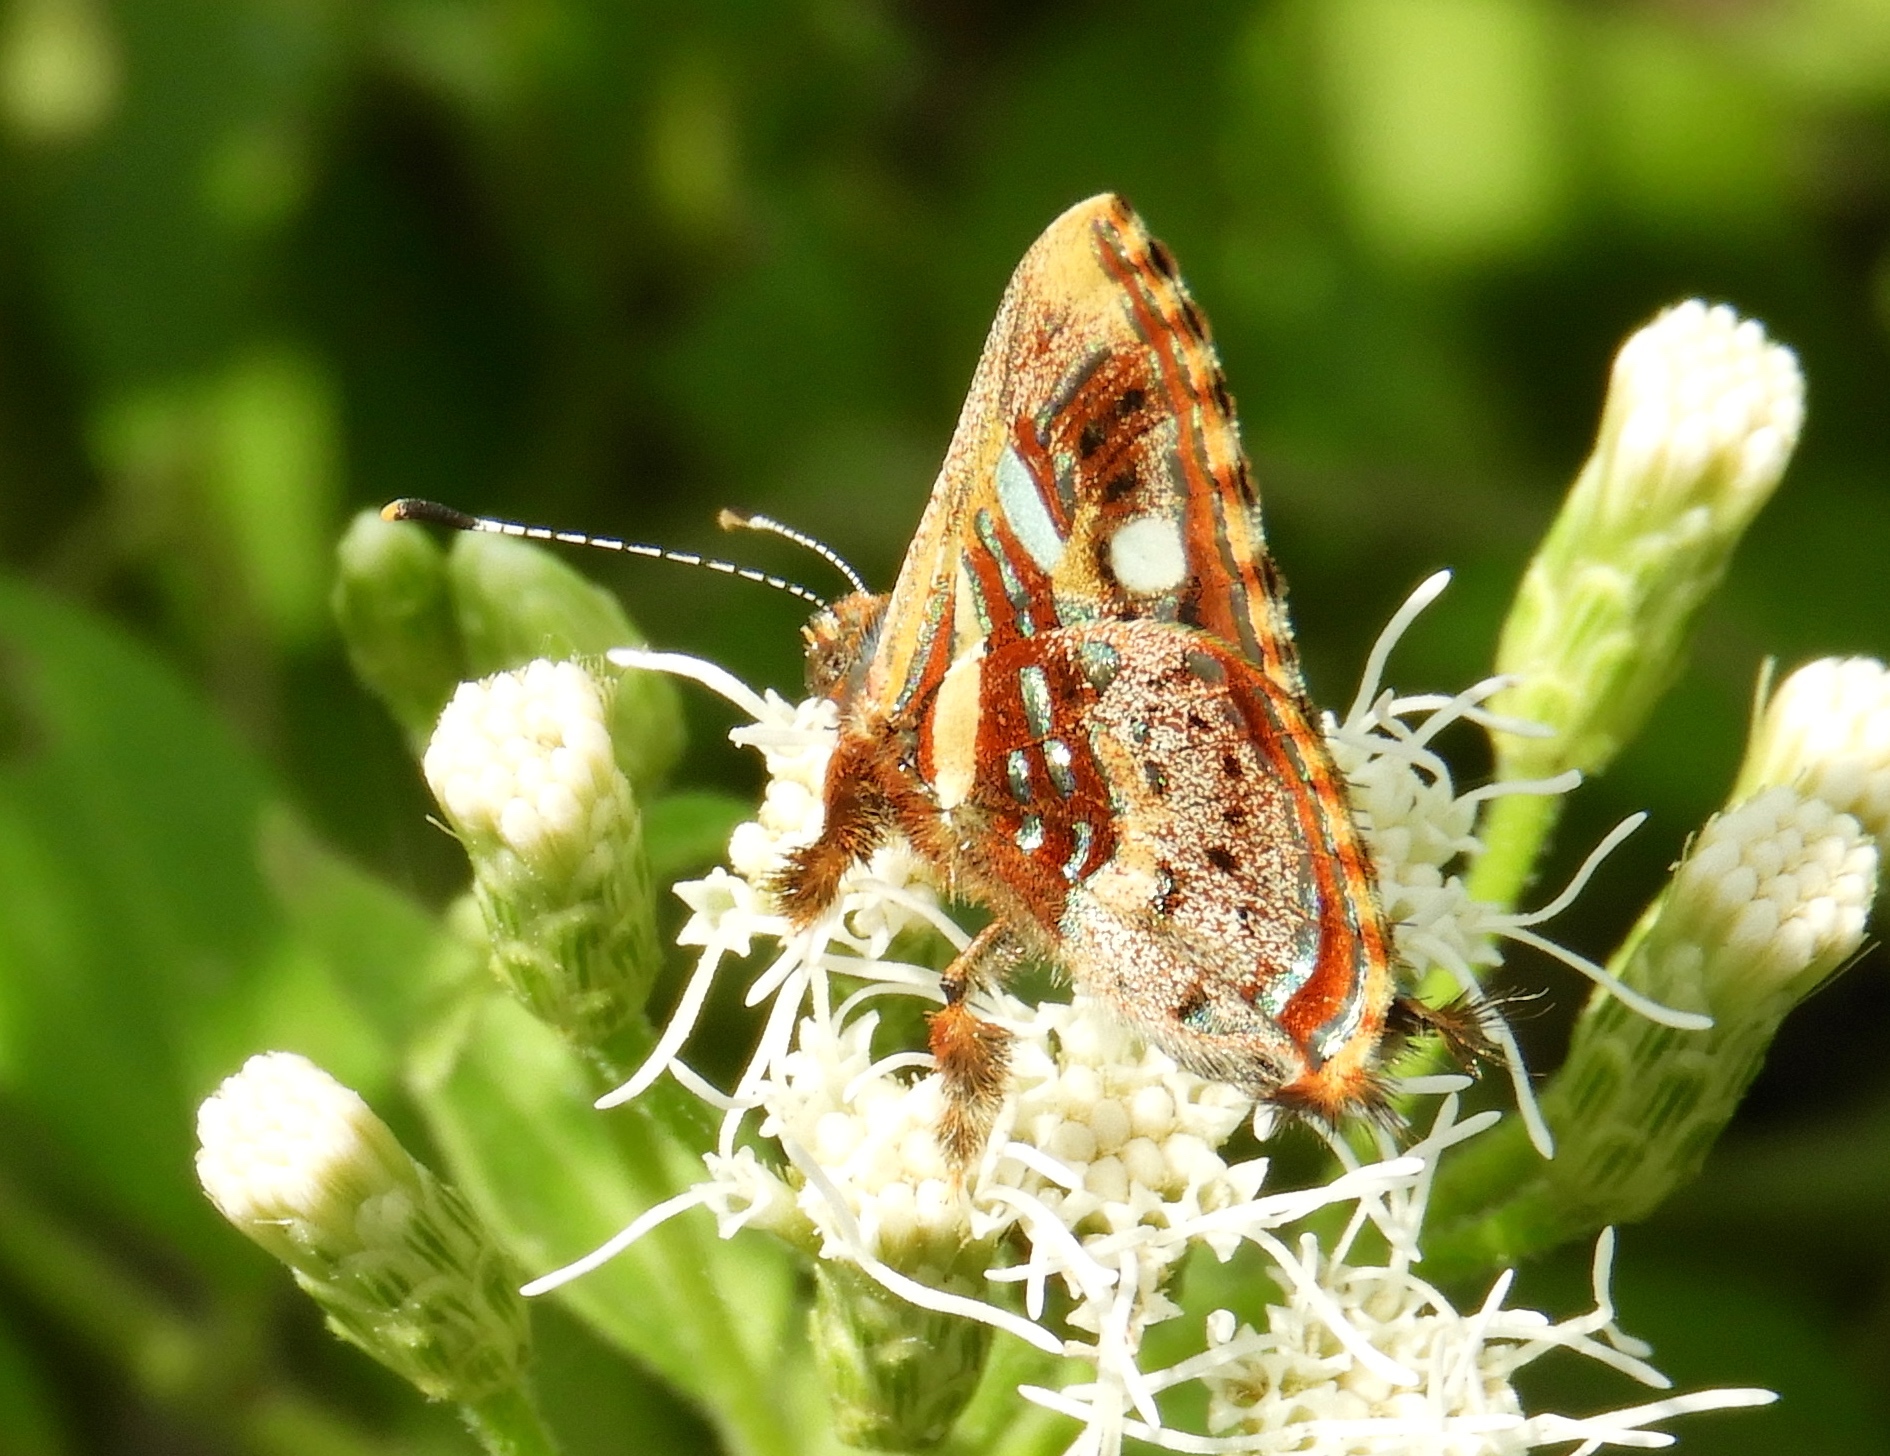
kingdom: Animalia
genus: Anteros
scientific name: Anteros carausius
